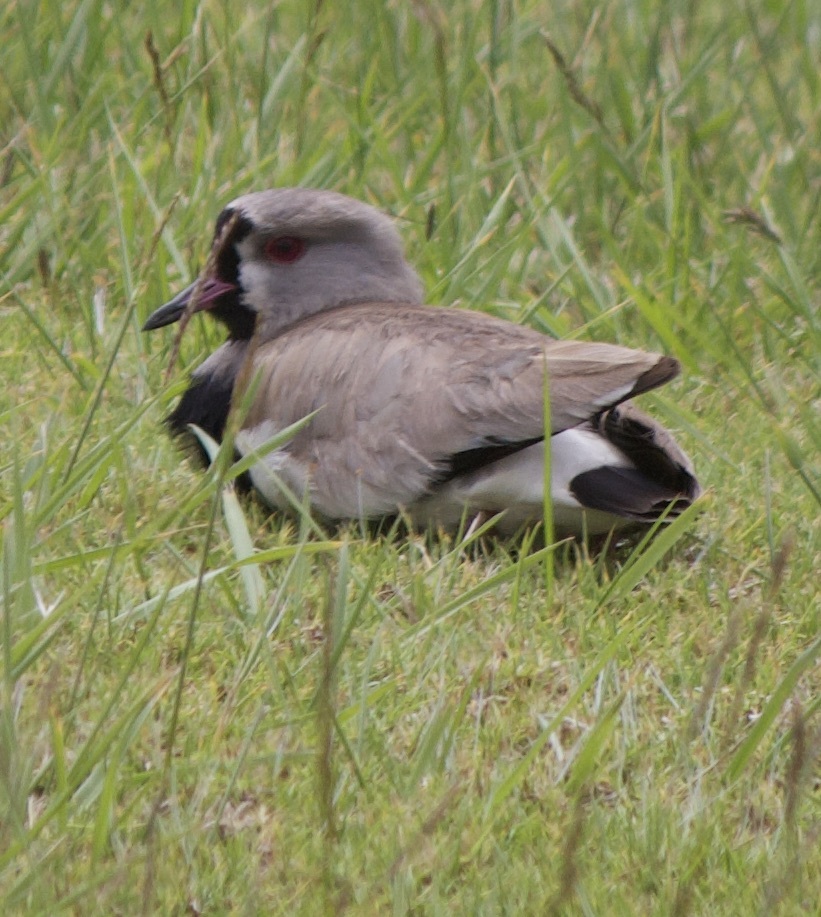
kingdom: Animalia
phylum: Chordata
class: Aves
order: Charadriiformes
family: Charadriidae
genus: Vanellus
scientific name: Vanellus chilensis
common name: Southern lapwing
